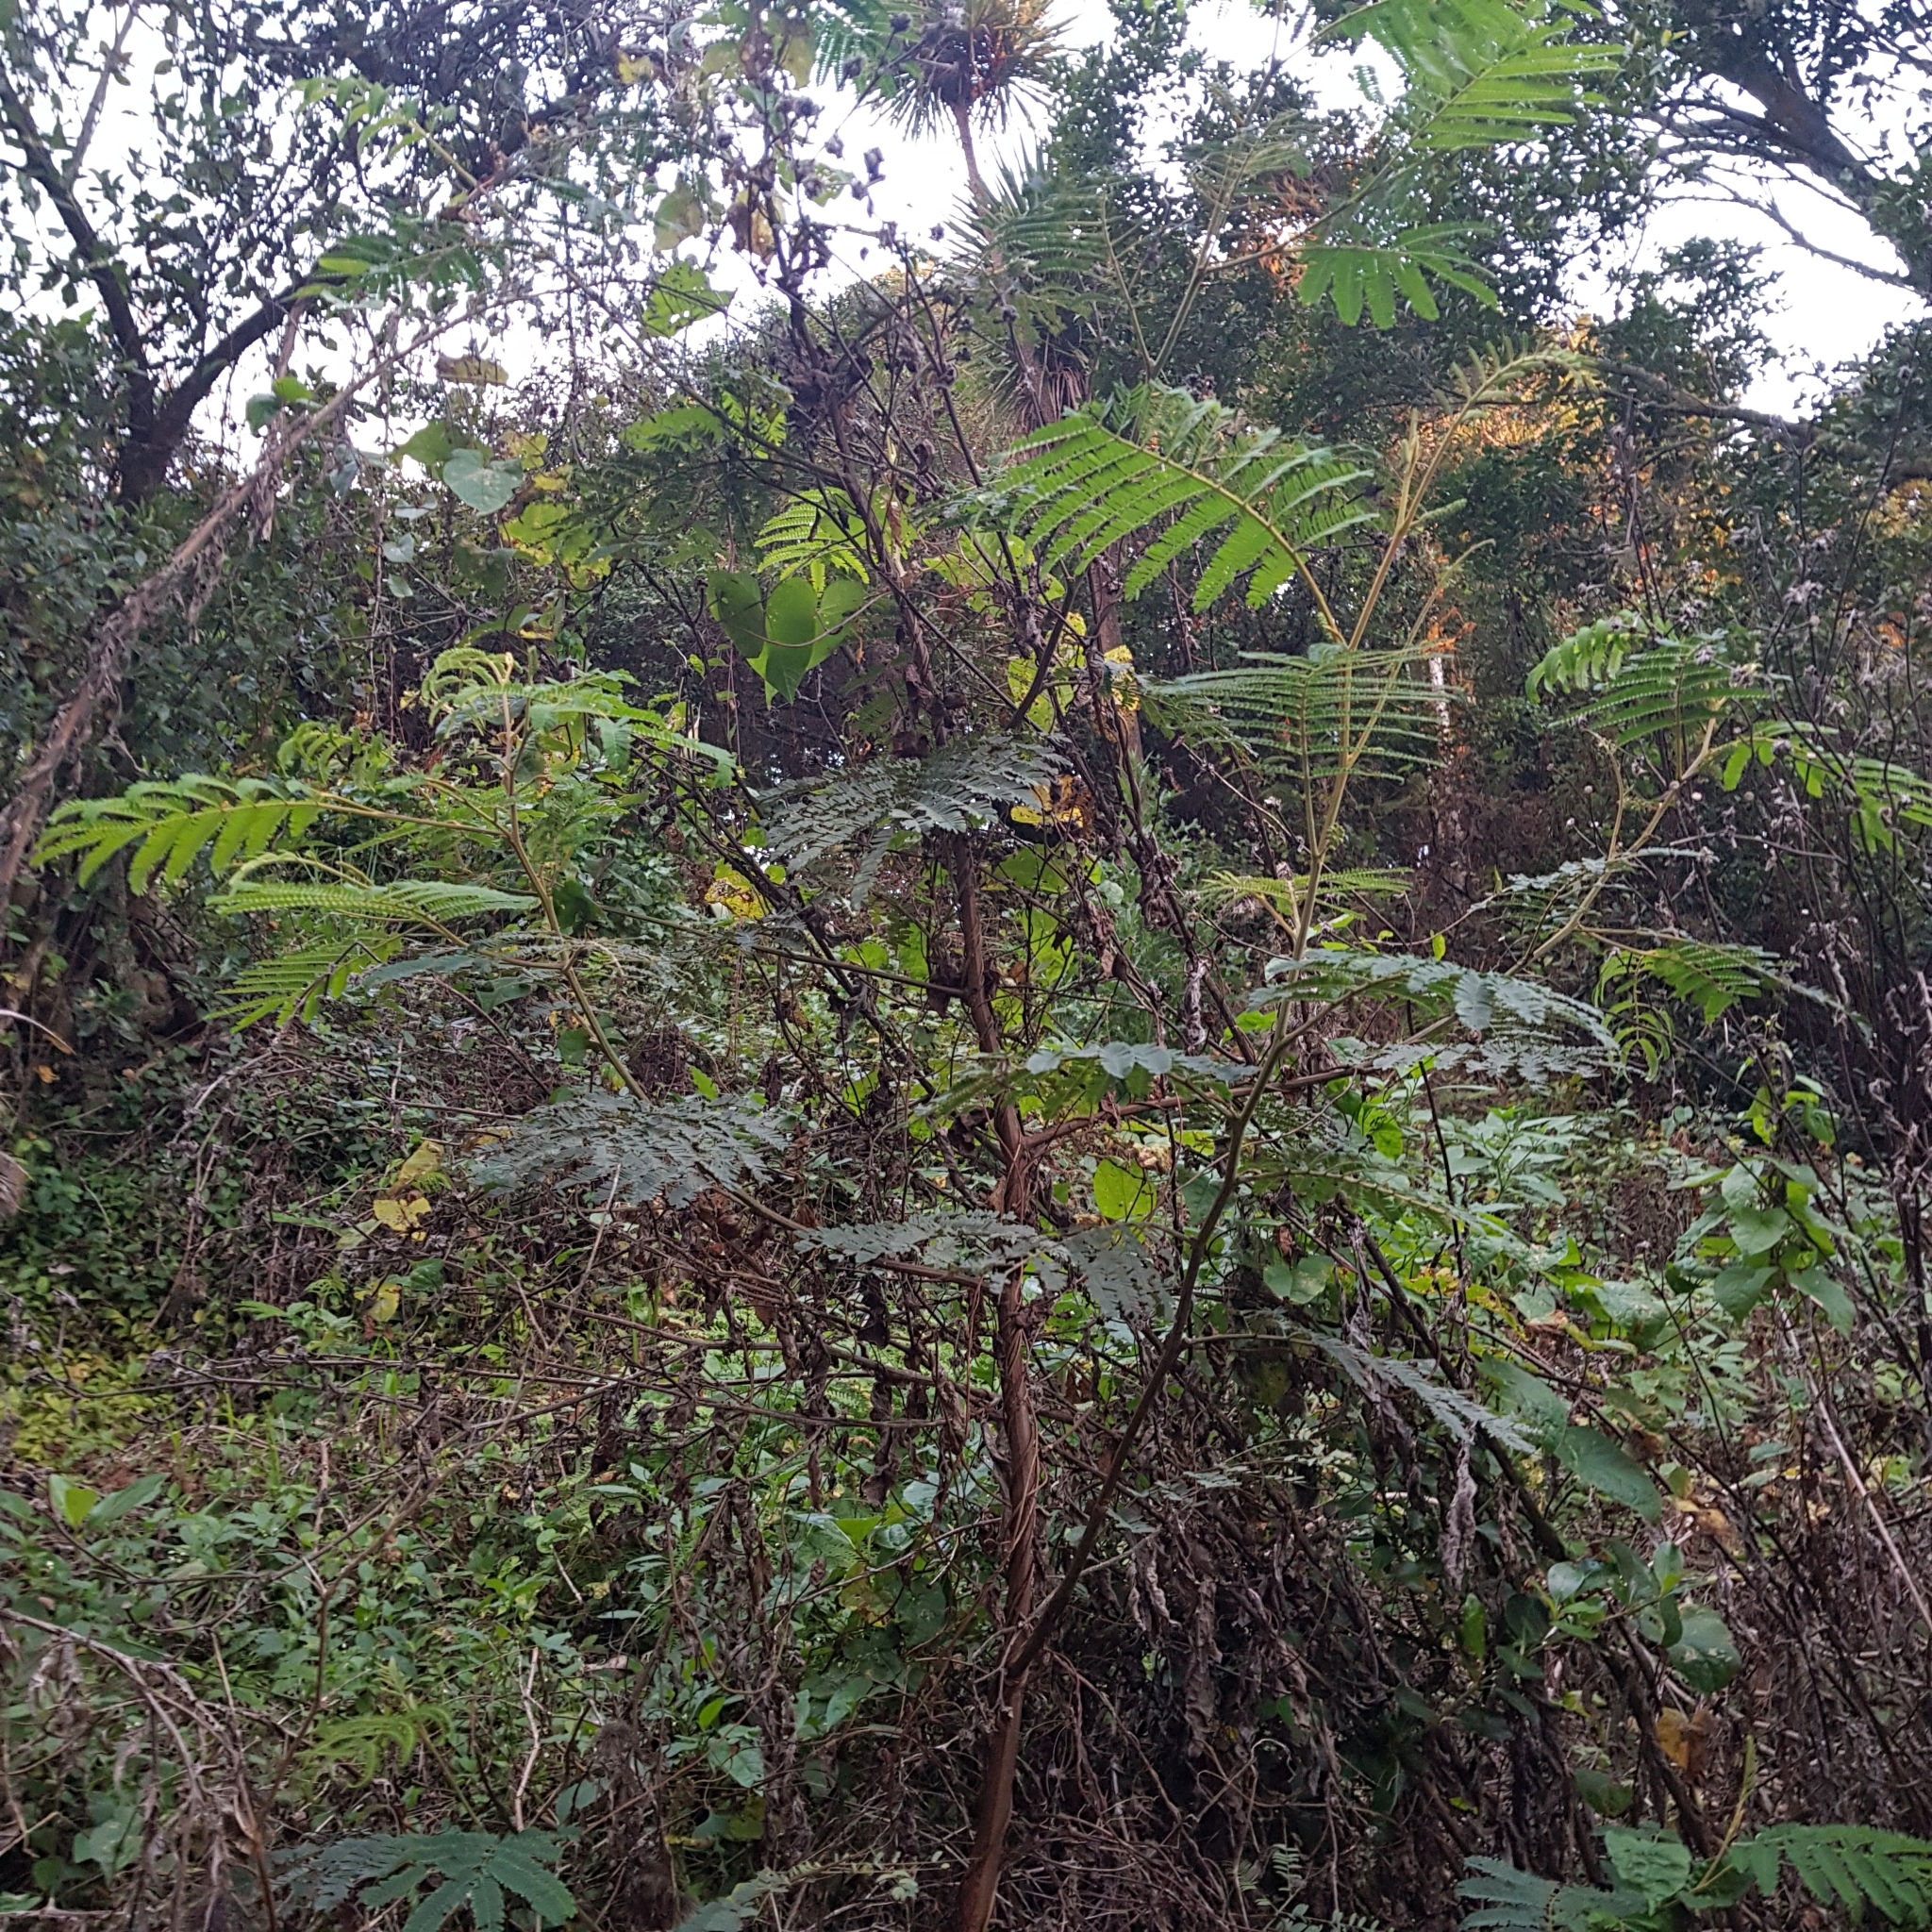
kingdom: Plantae
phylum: Tracheophyta
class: Magnoliopsida
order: Fabales
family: Fabaceae
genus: Paraserianthes
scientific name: Paraserianthes lophantha
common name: Plume albizia
